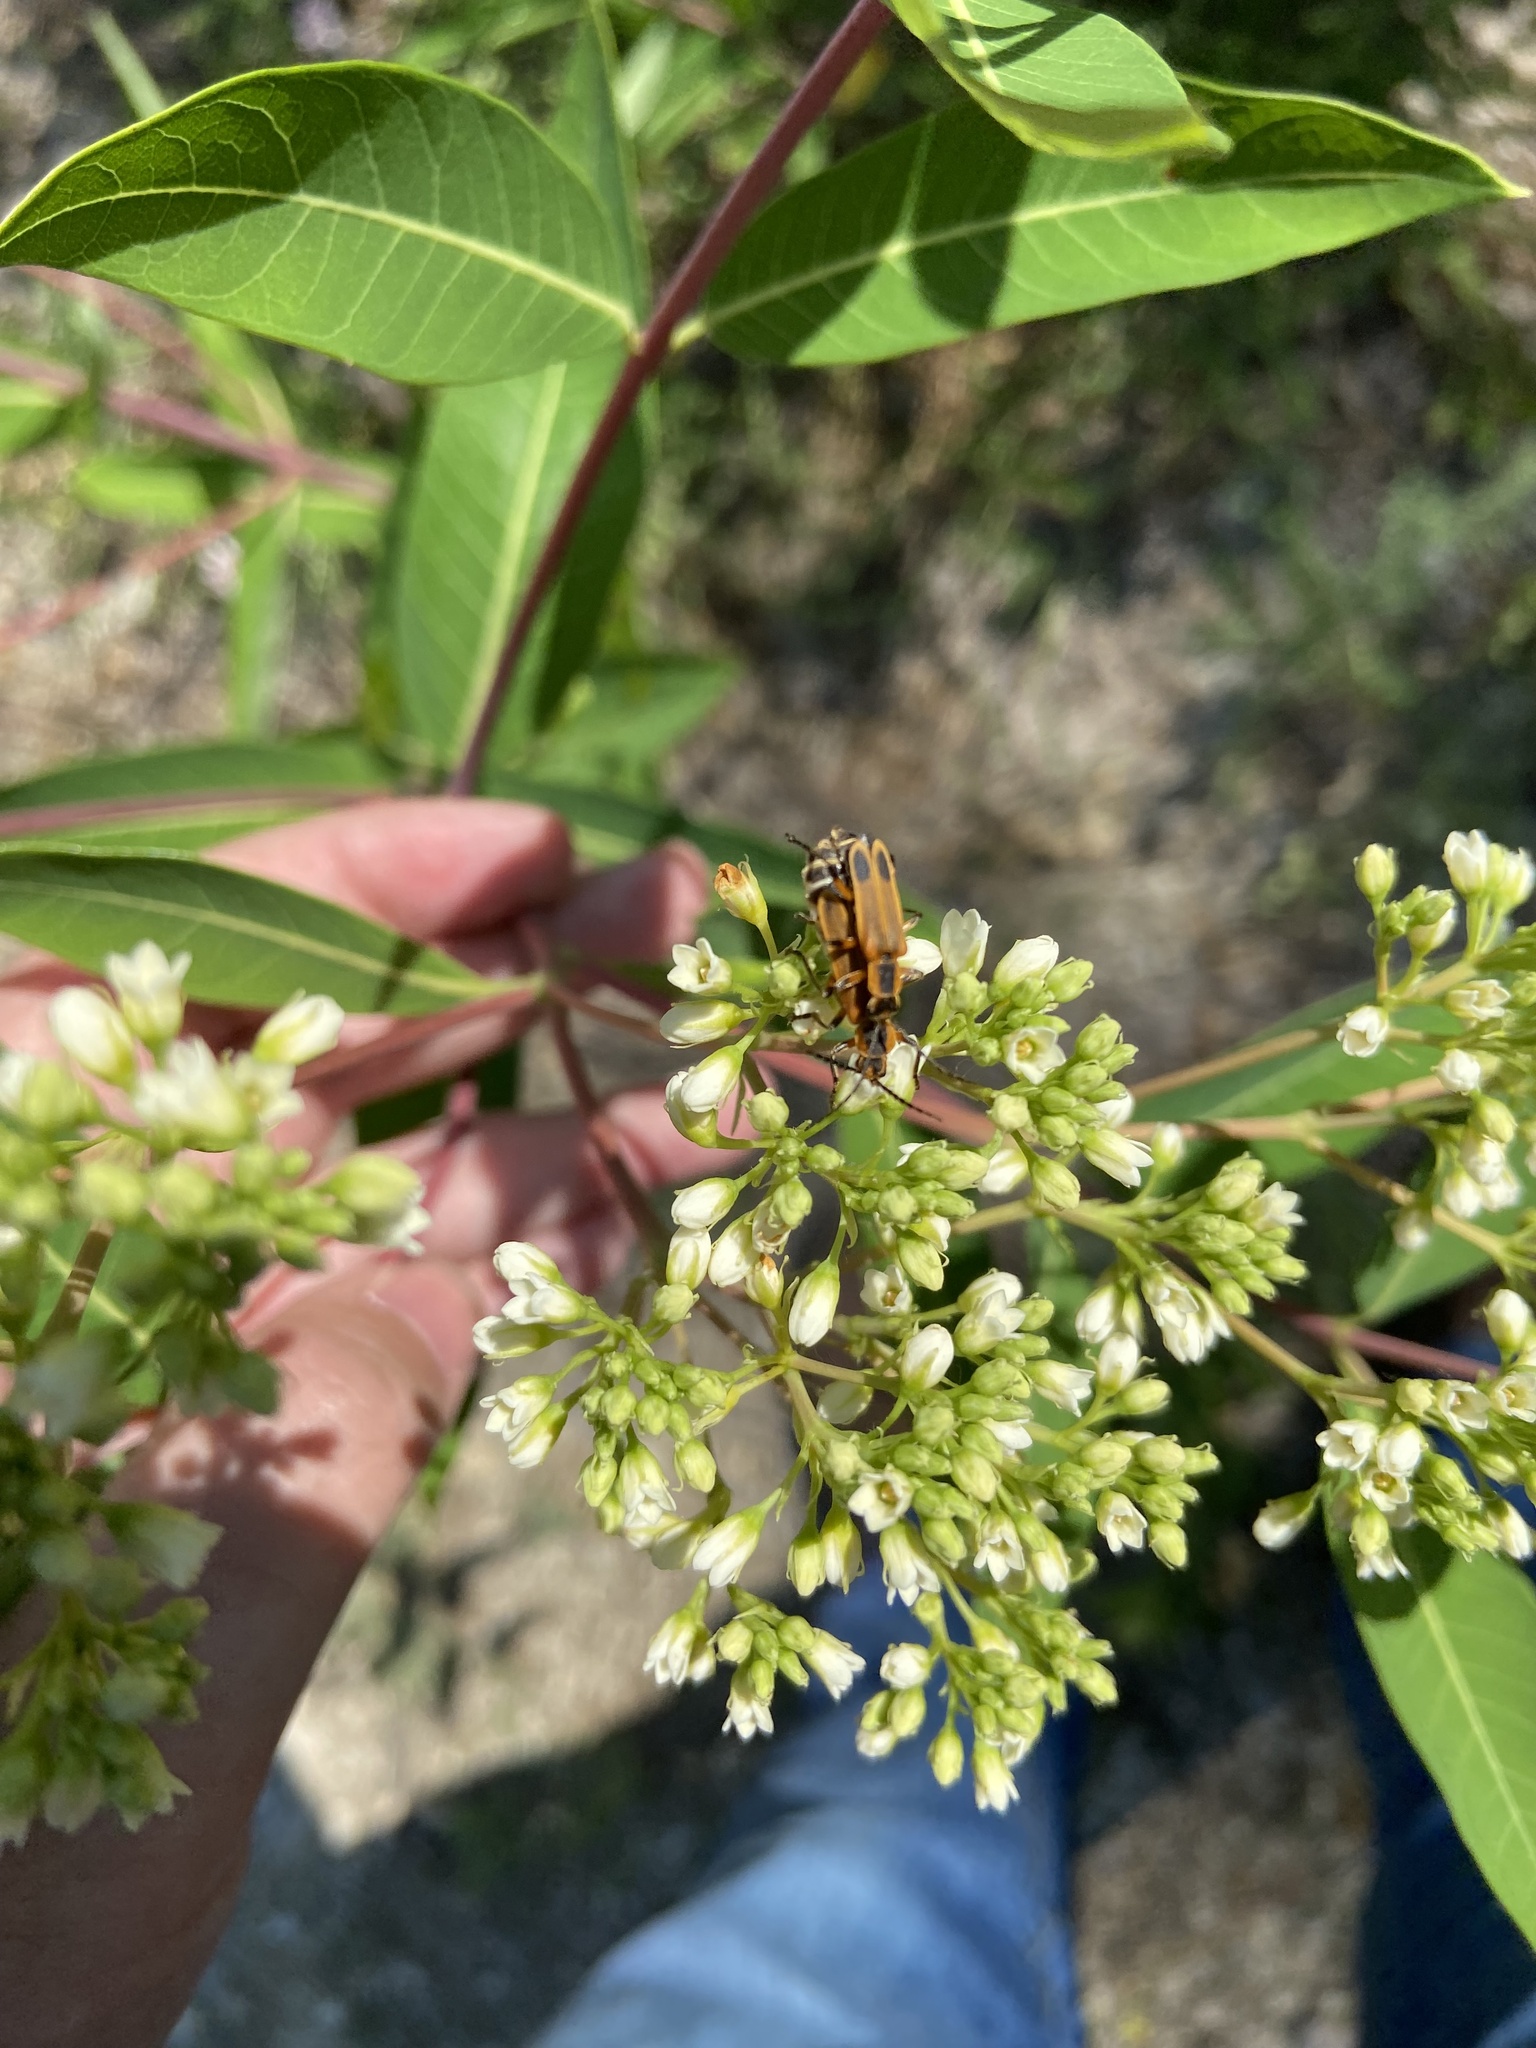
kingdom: Animalia
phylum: Arthropoda
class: Insecta
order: Coleoptera
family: Cantharidae
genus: Chauliognathus
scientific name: Chauliognathus marginatus
